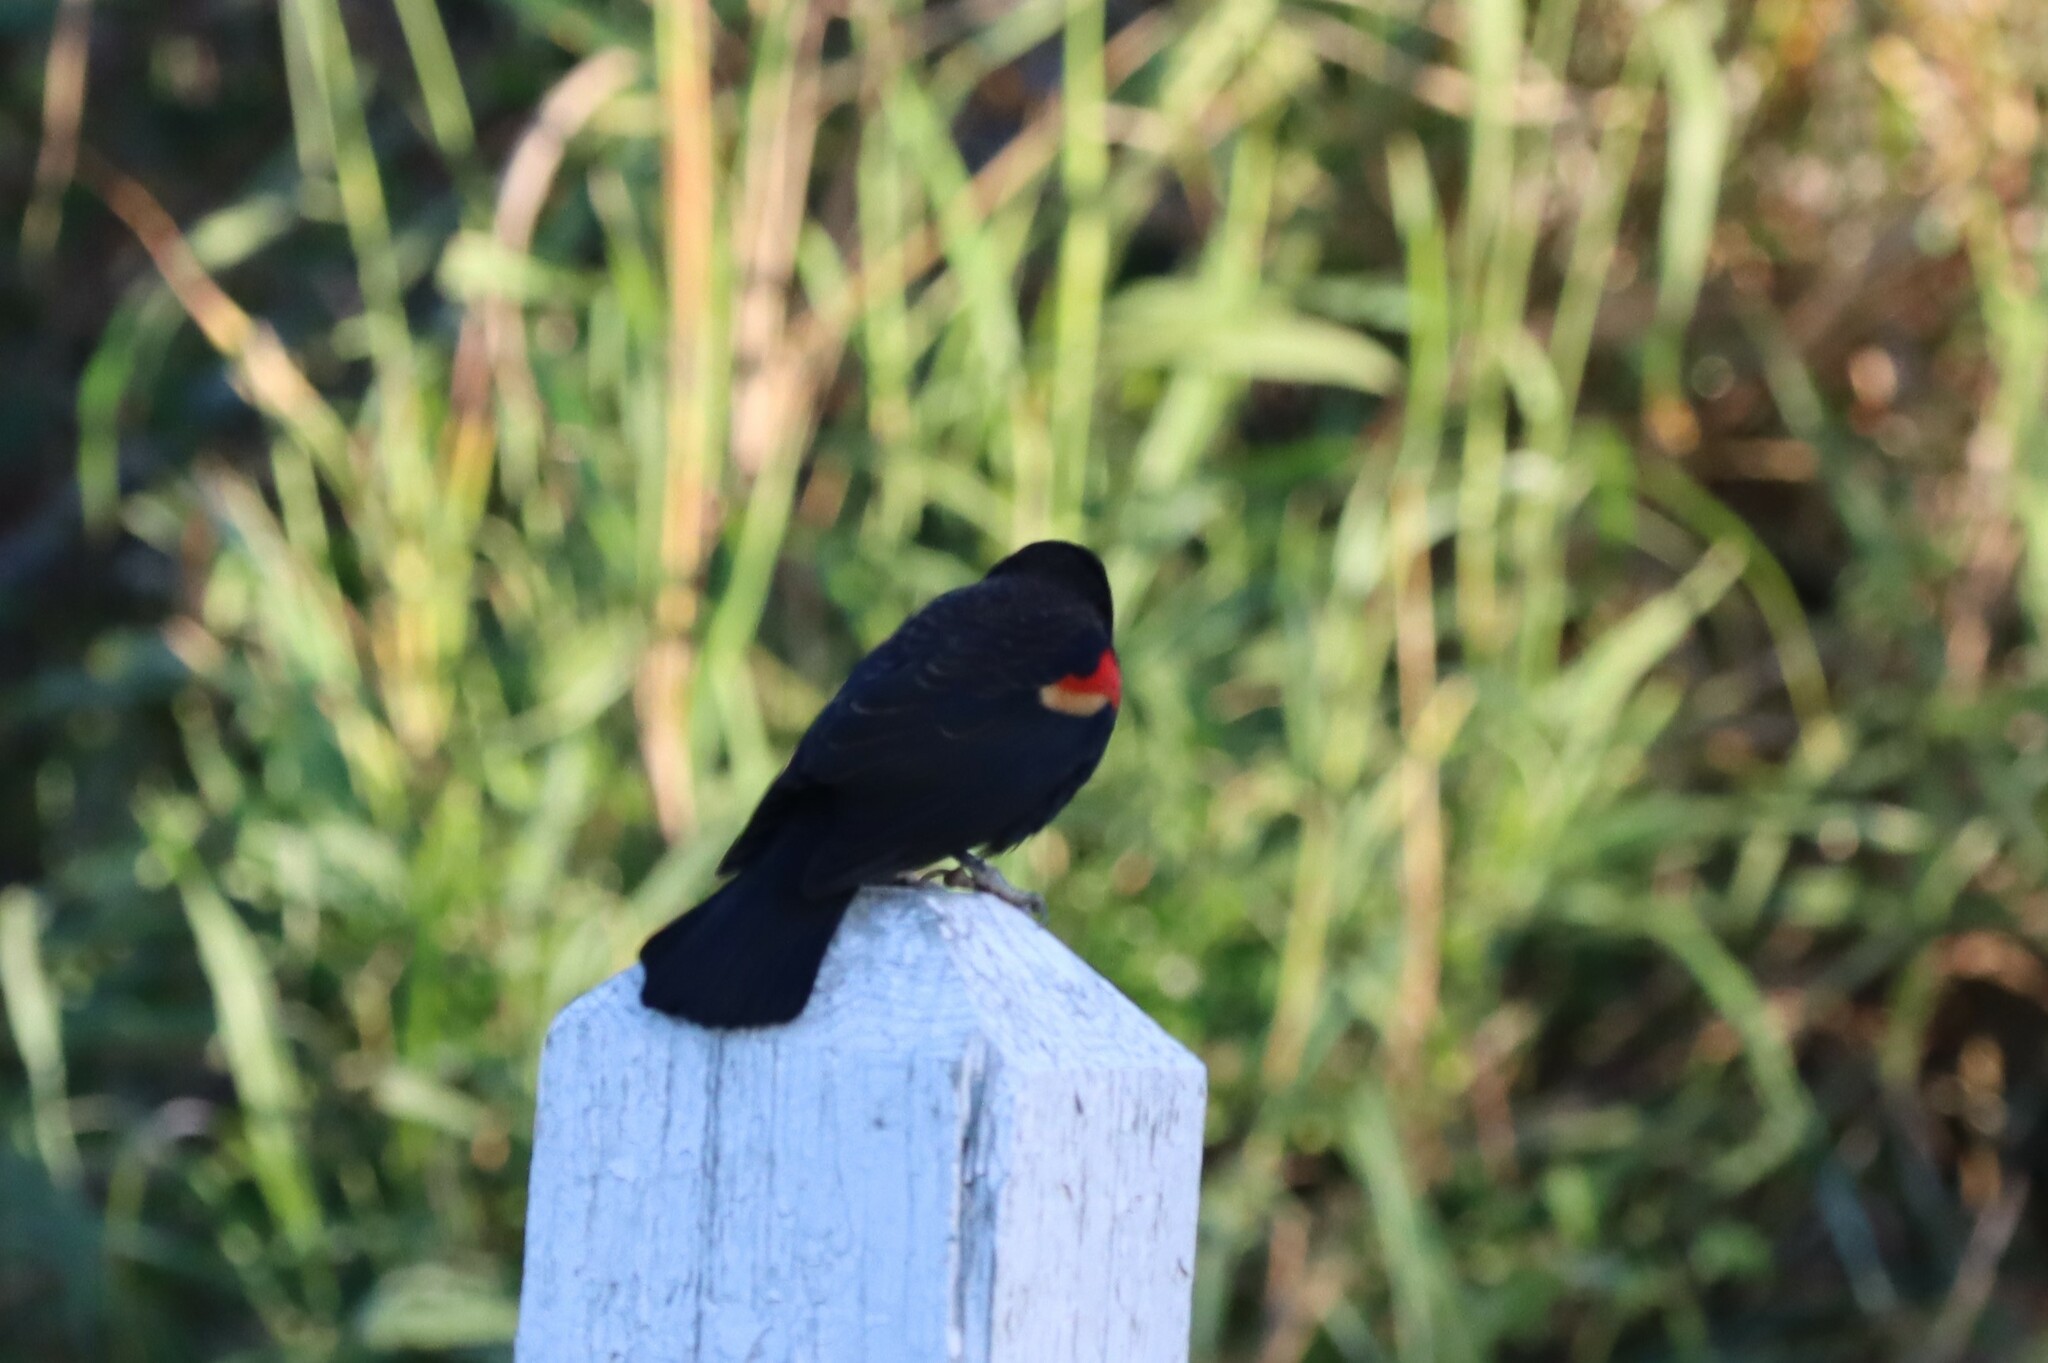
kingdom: Animalia
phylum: Chordata
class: Aves
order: Passeriformes
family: Icteridae
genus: Agelaius
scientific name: Agelaius phoeniceus
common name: Red-winged blackbird
